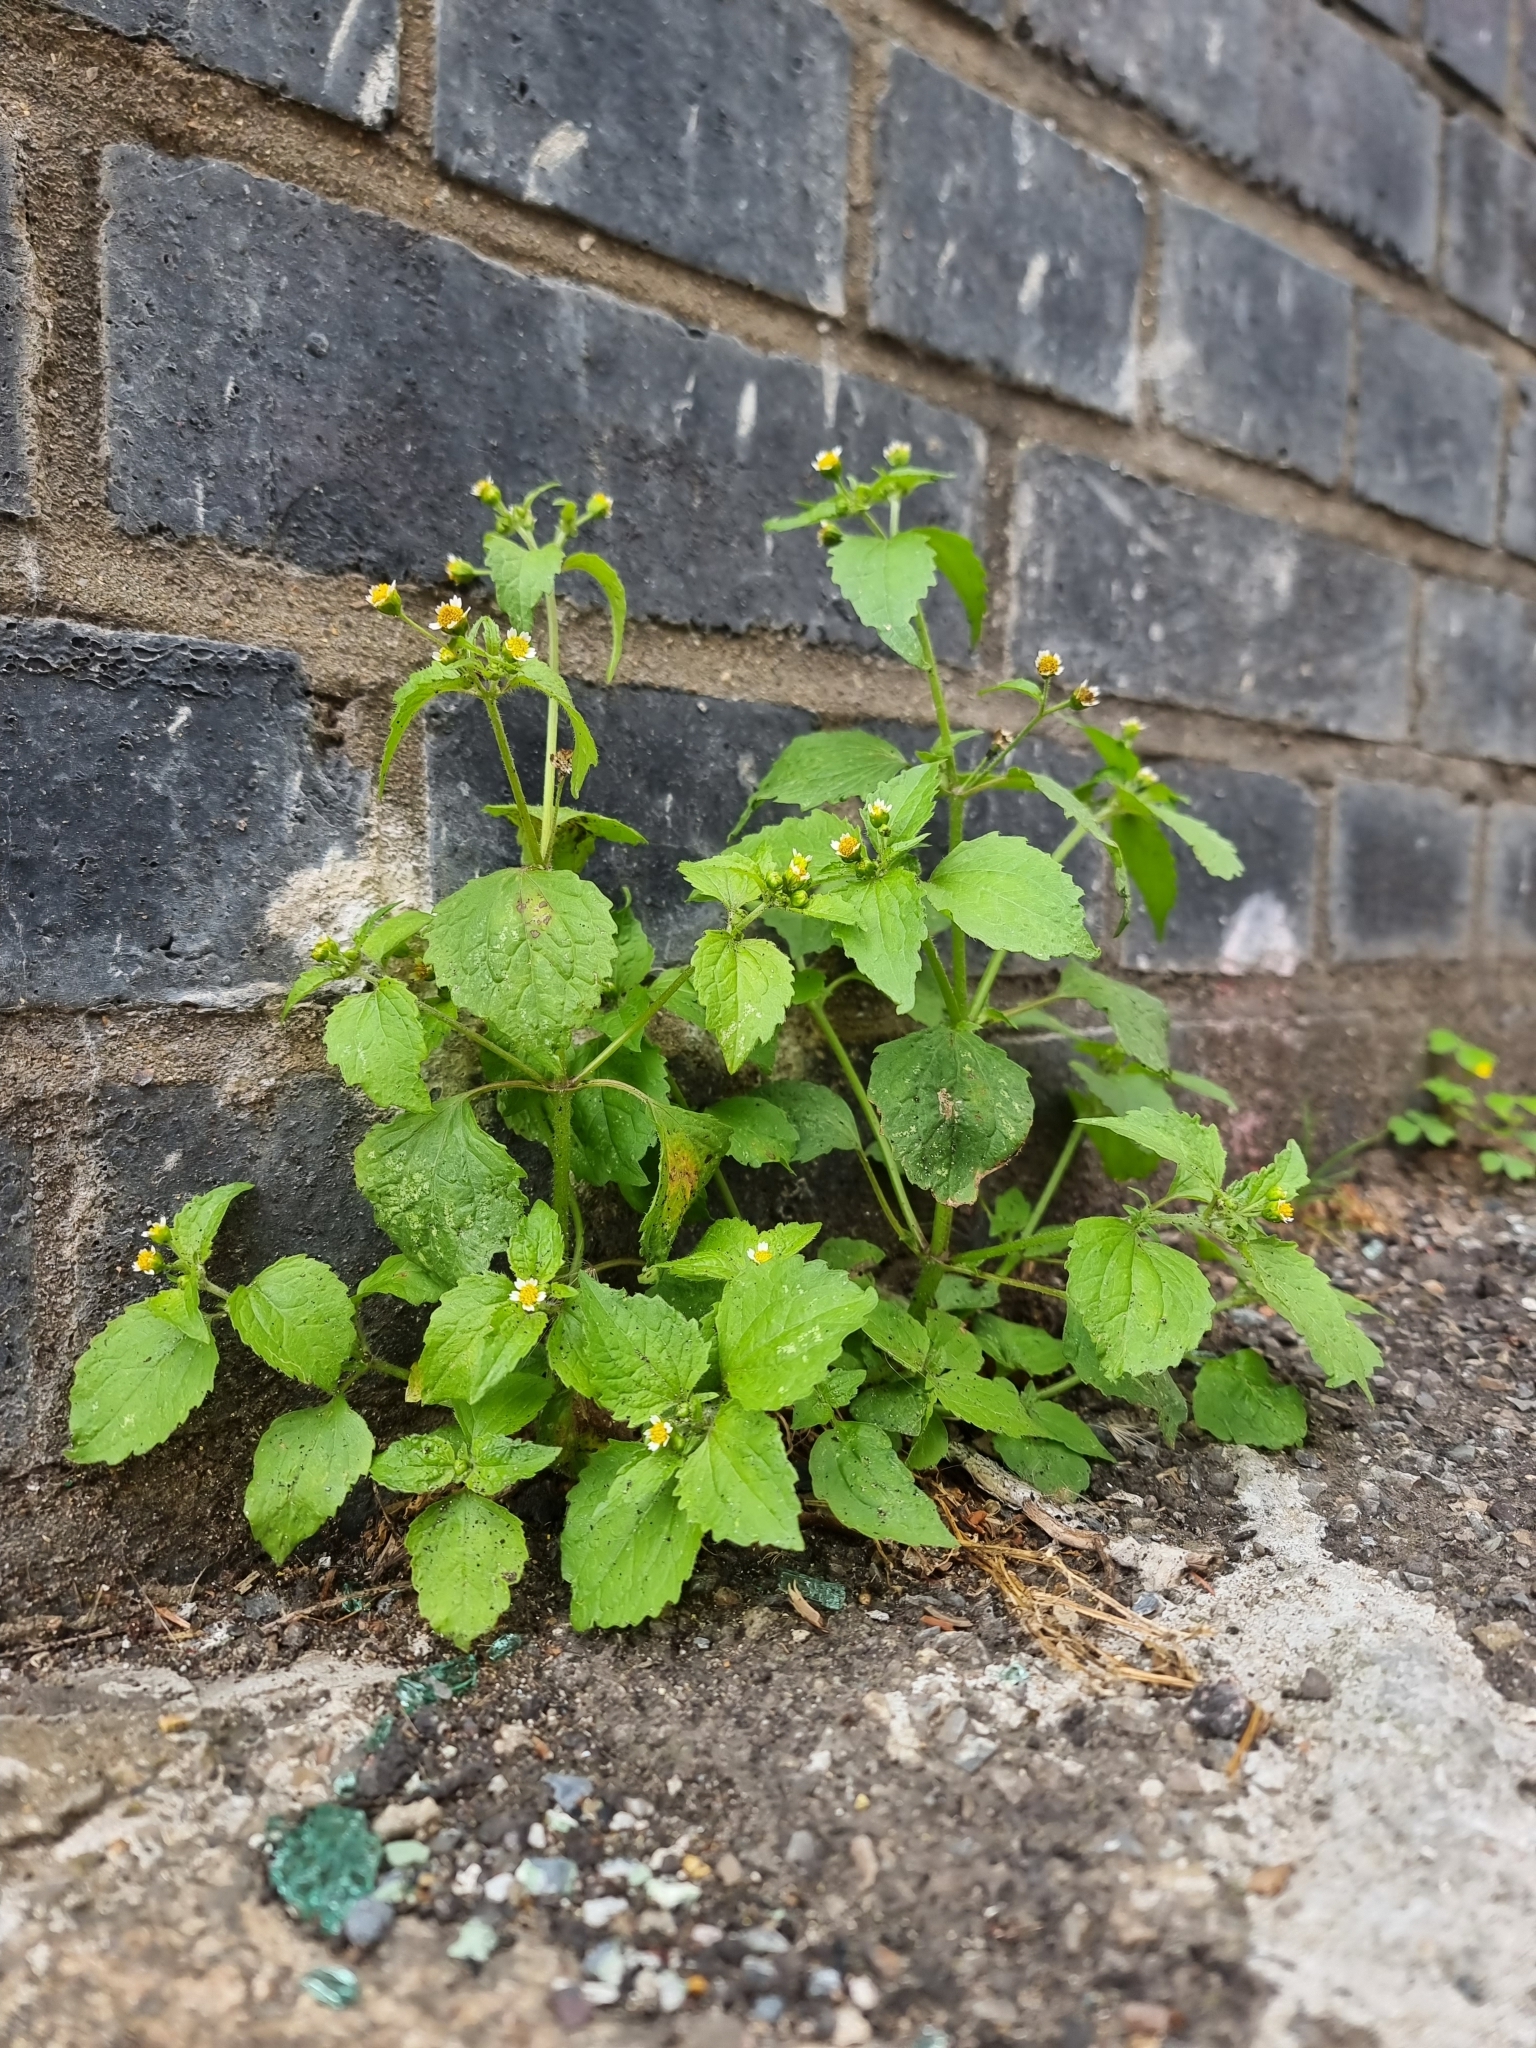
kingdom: Plantae
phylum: Tracheophyta
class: Magnoliopsida
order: Asterales
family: Asteraceae
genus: Galinsoga
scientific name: Galinsoga quadriradiata
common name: Shaggy soldier
